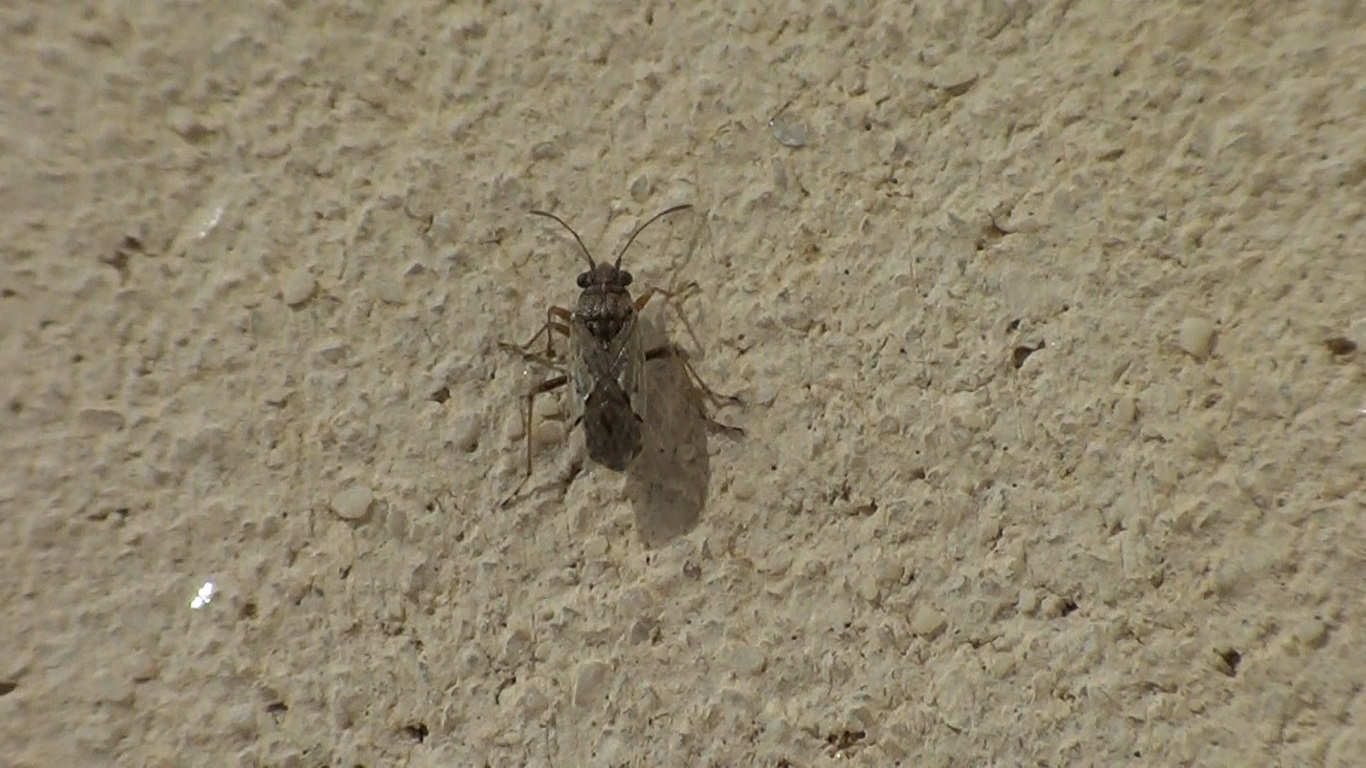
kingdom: Animalia
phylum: Arthropoda
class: Insecta
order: Hemiptera
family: Lygaeidae
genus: Nysius
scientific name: Nysius
